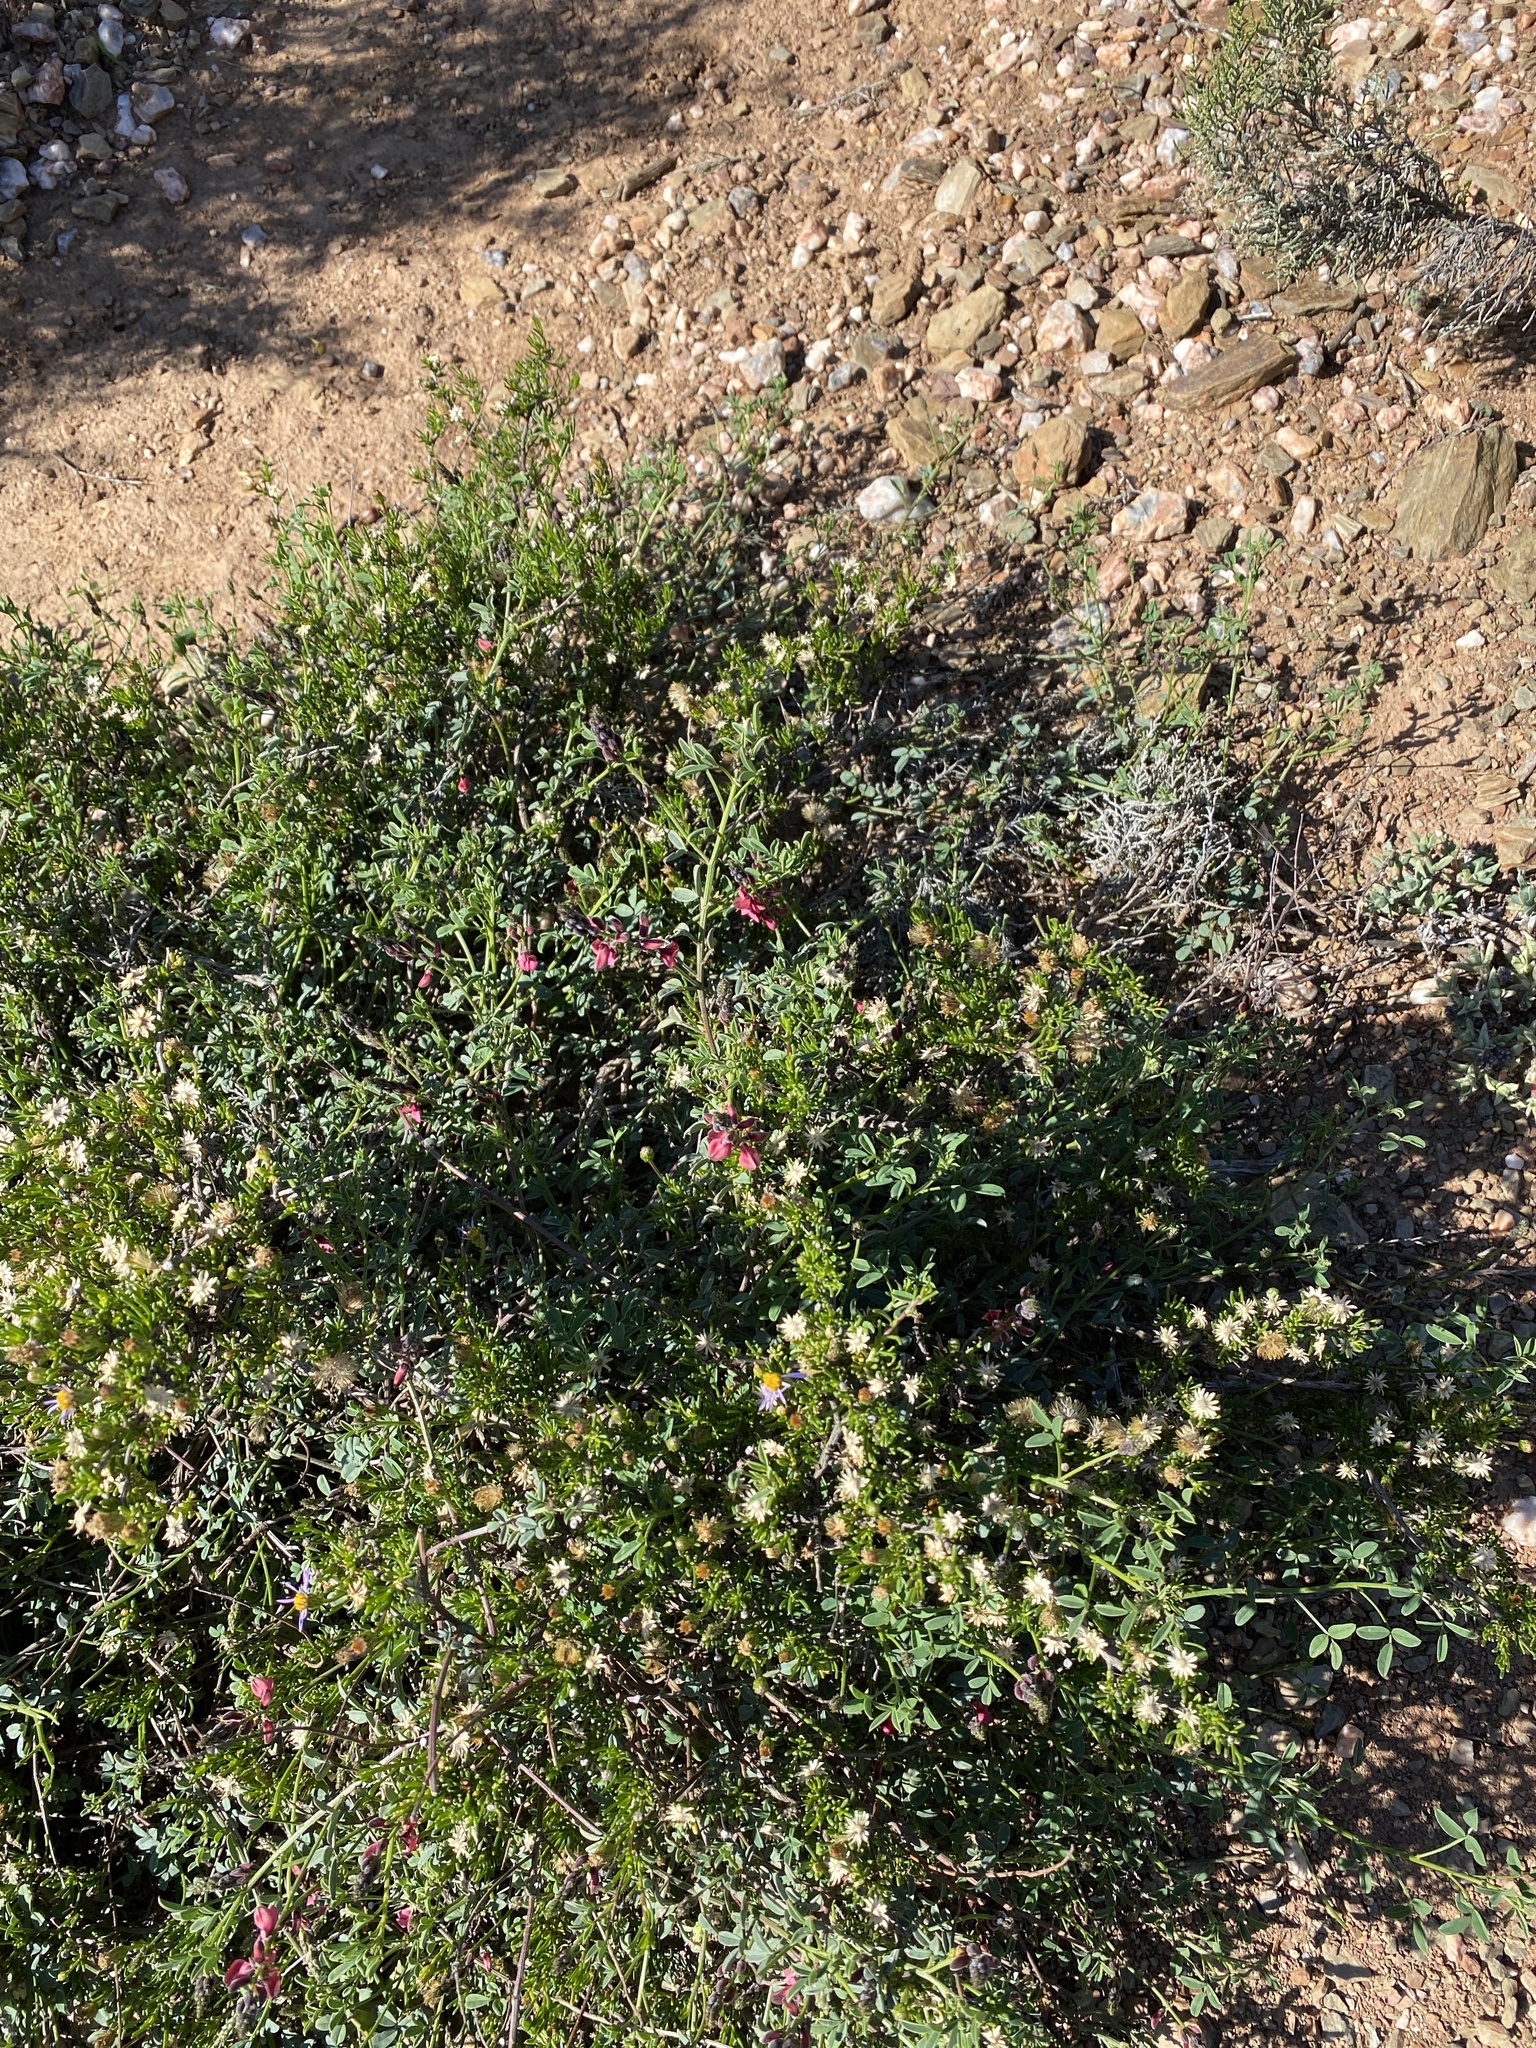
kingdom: Plantae
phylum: Tracheophyta
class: Magnoliopsida
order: Fabales
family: Fabaceae
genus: Indigofera
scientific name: Indigofera heterophylla
